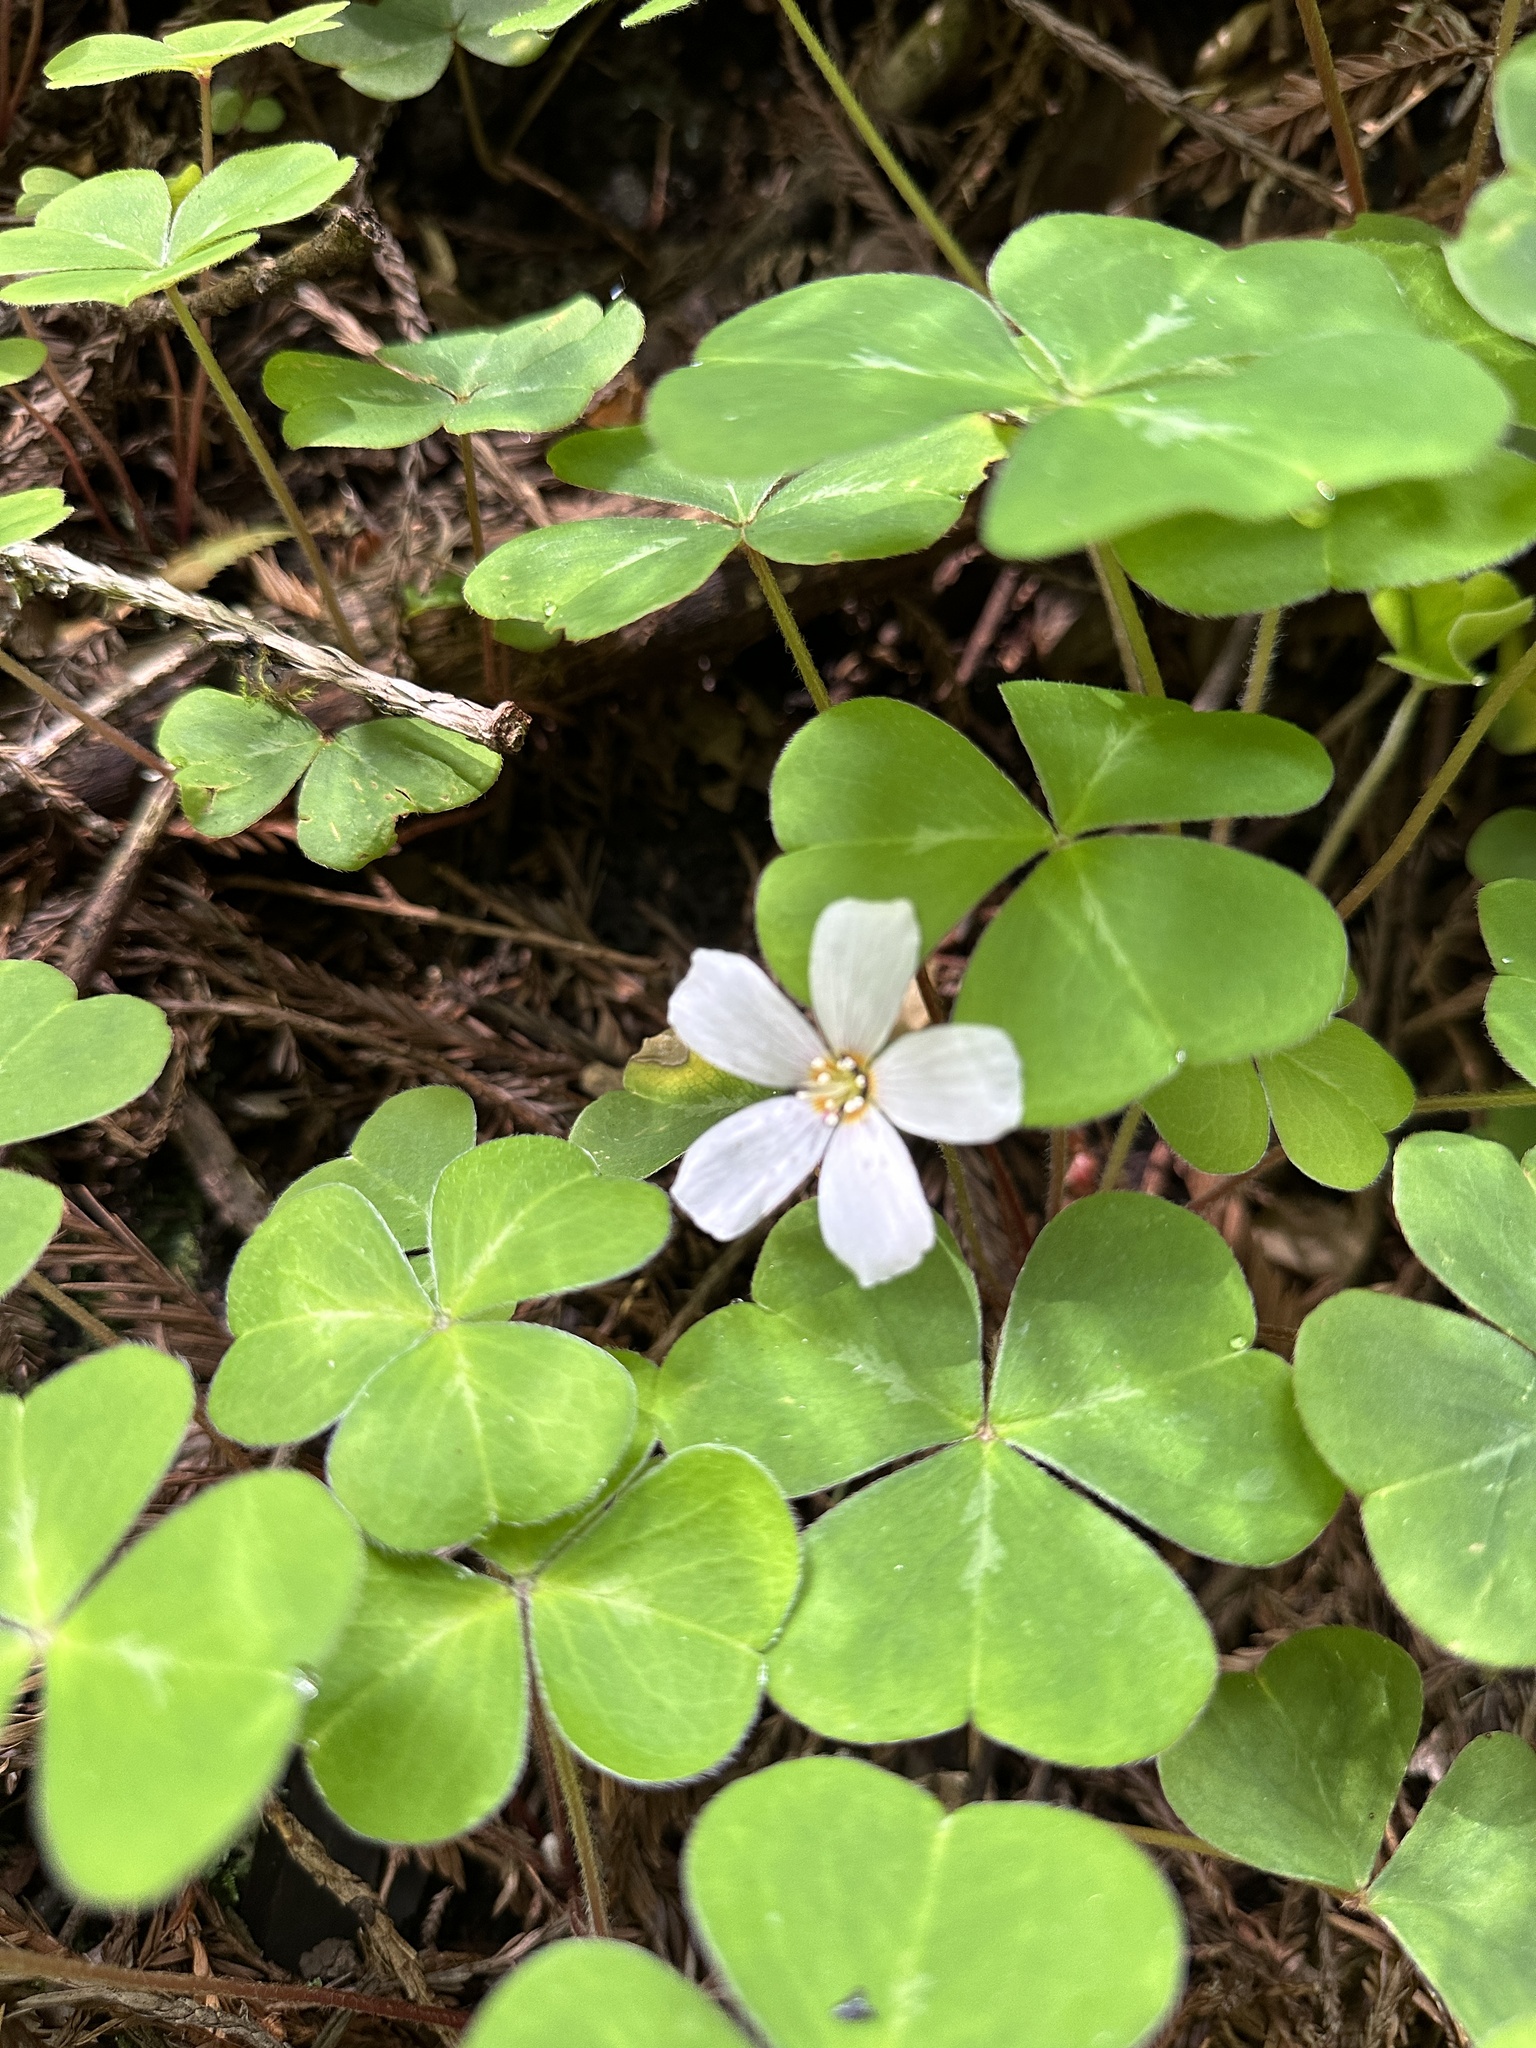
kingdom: Plantae
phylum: Tracheophyta
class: Magnoliopsida
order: Oxalidales
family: Oxalidaceae
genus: Oxalis
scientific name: Oxalis oregana
